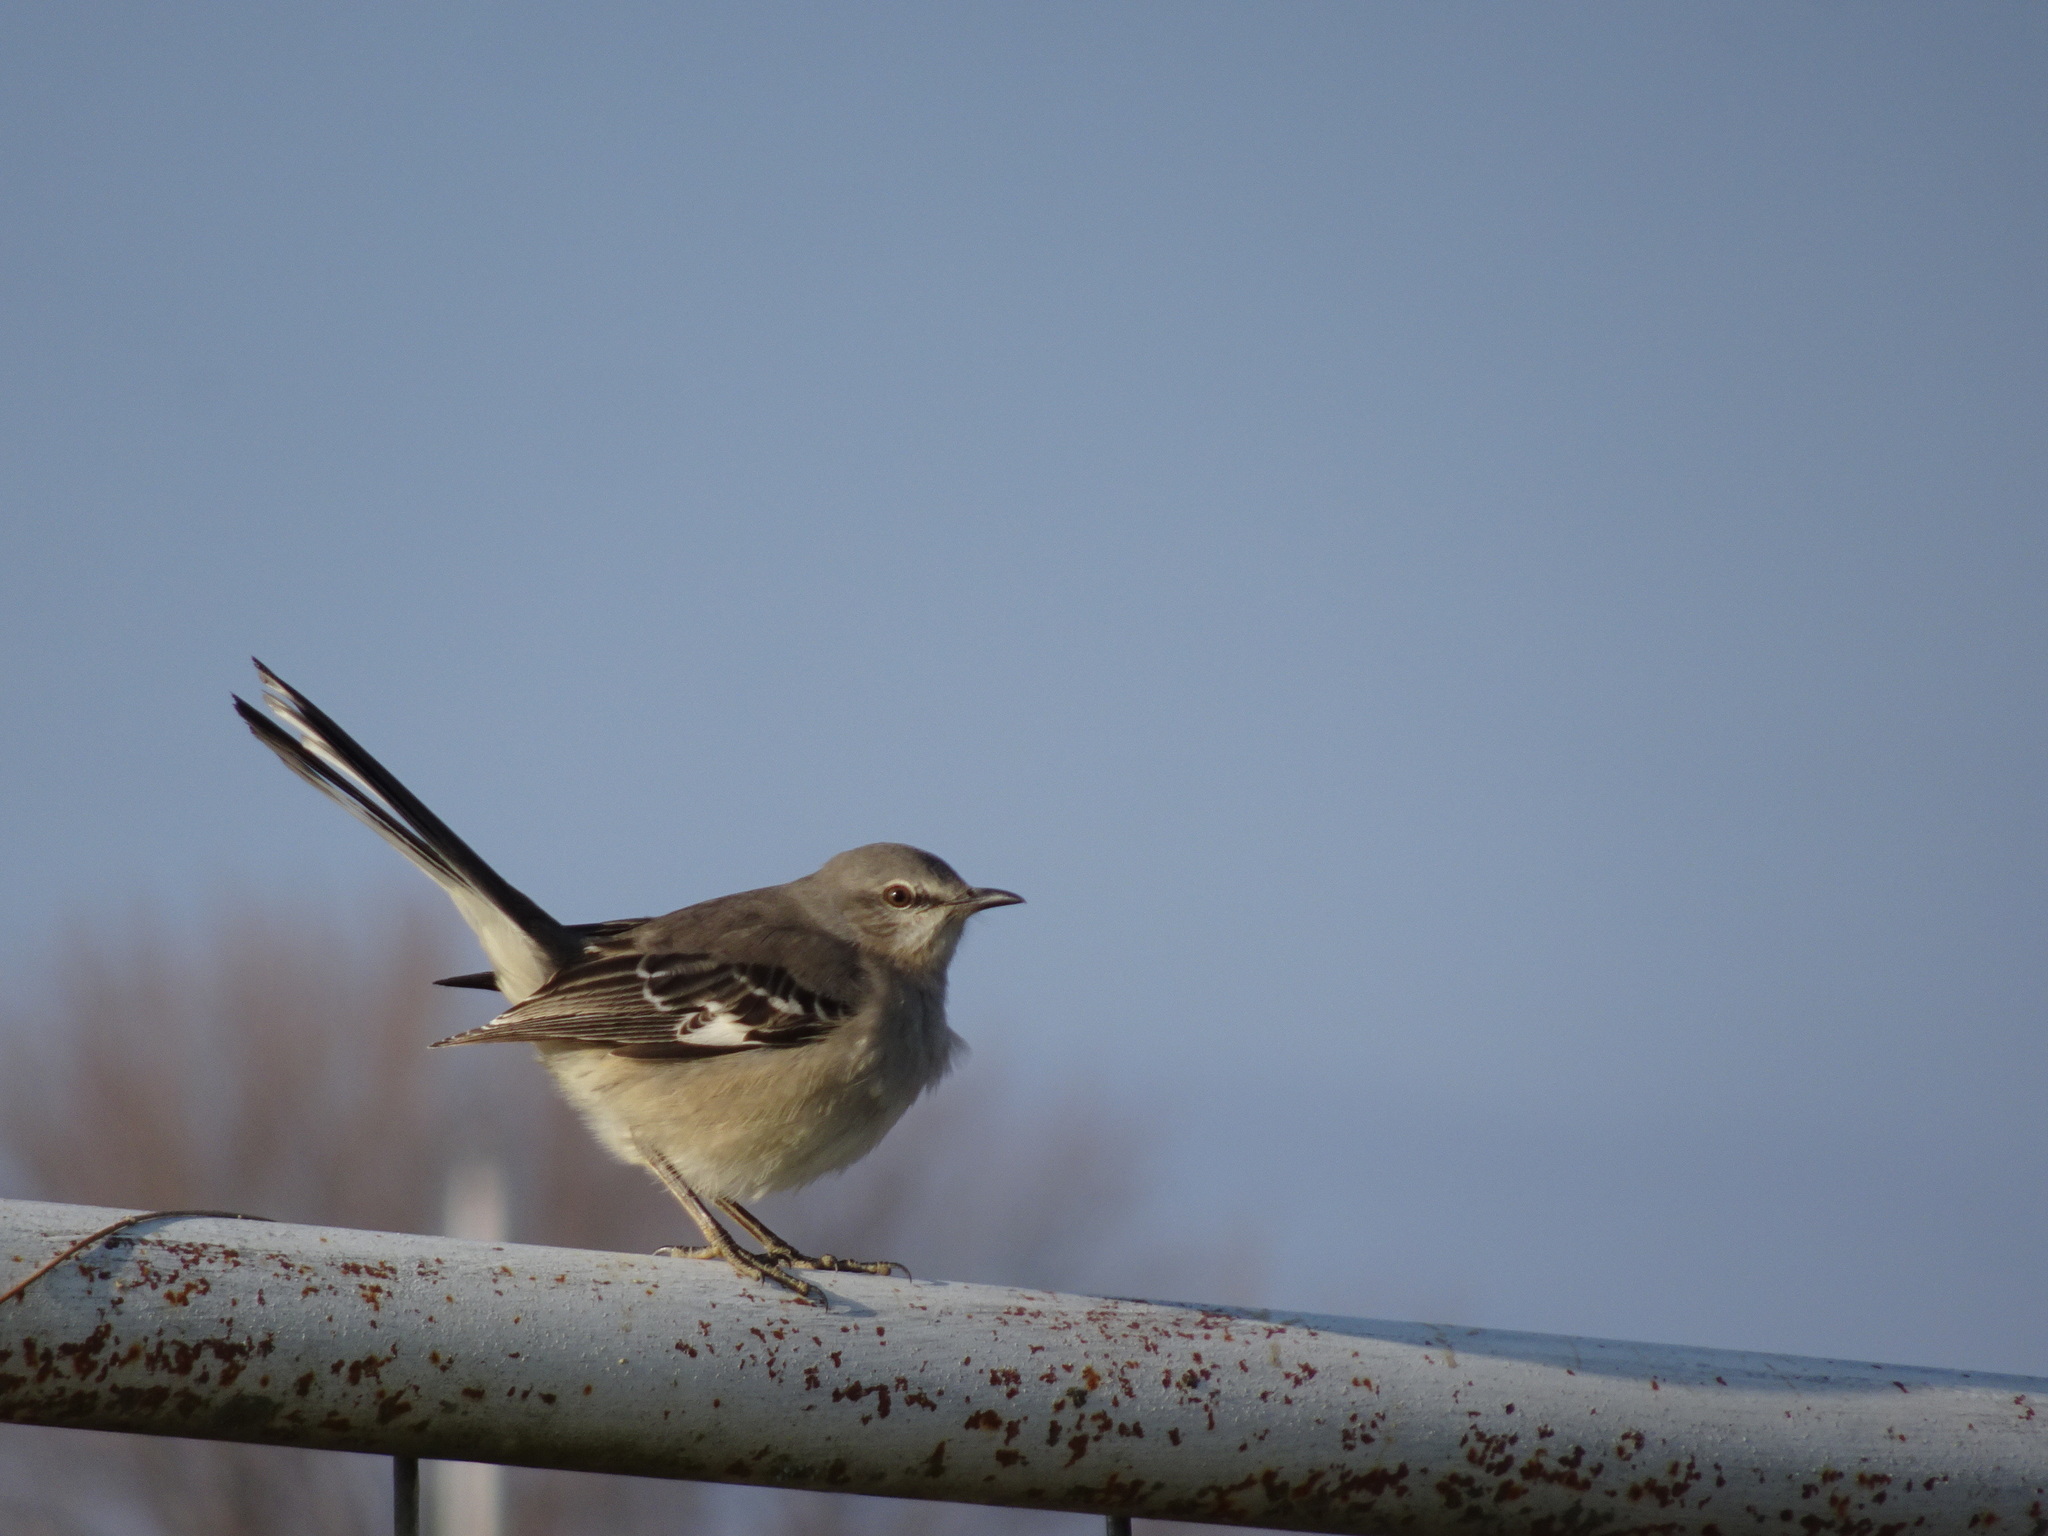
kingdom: Animalia
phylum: Chordata
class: Aves
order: Passeriformes
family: Mimidae
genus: Mimus
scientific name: Mimus polyglottos
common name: Northern mockingbird
